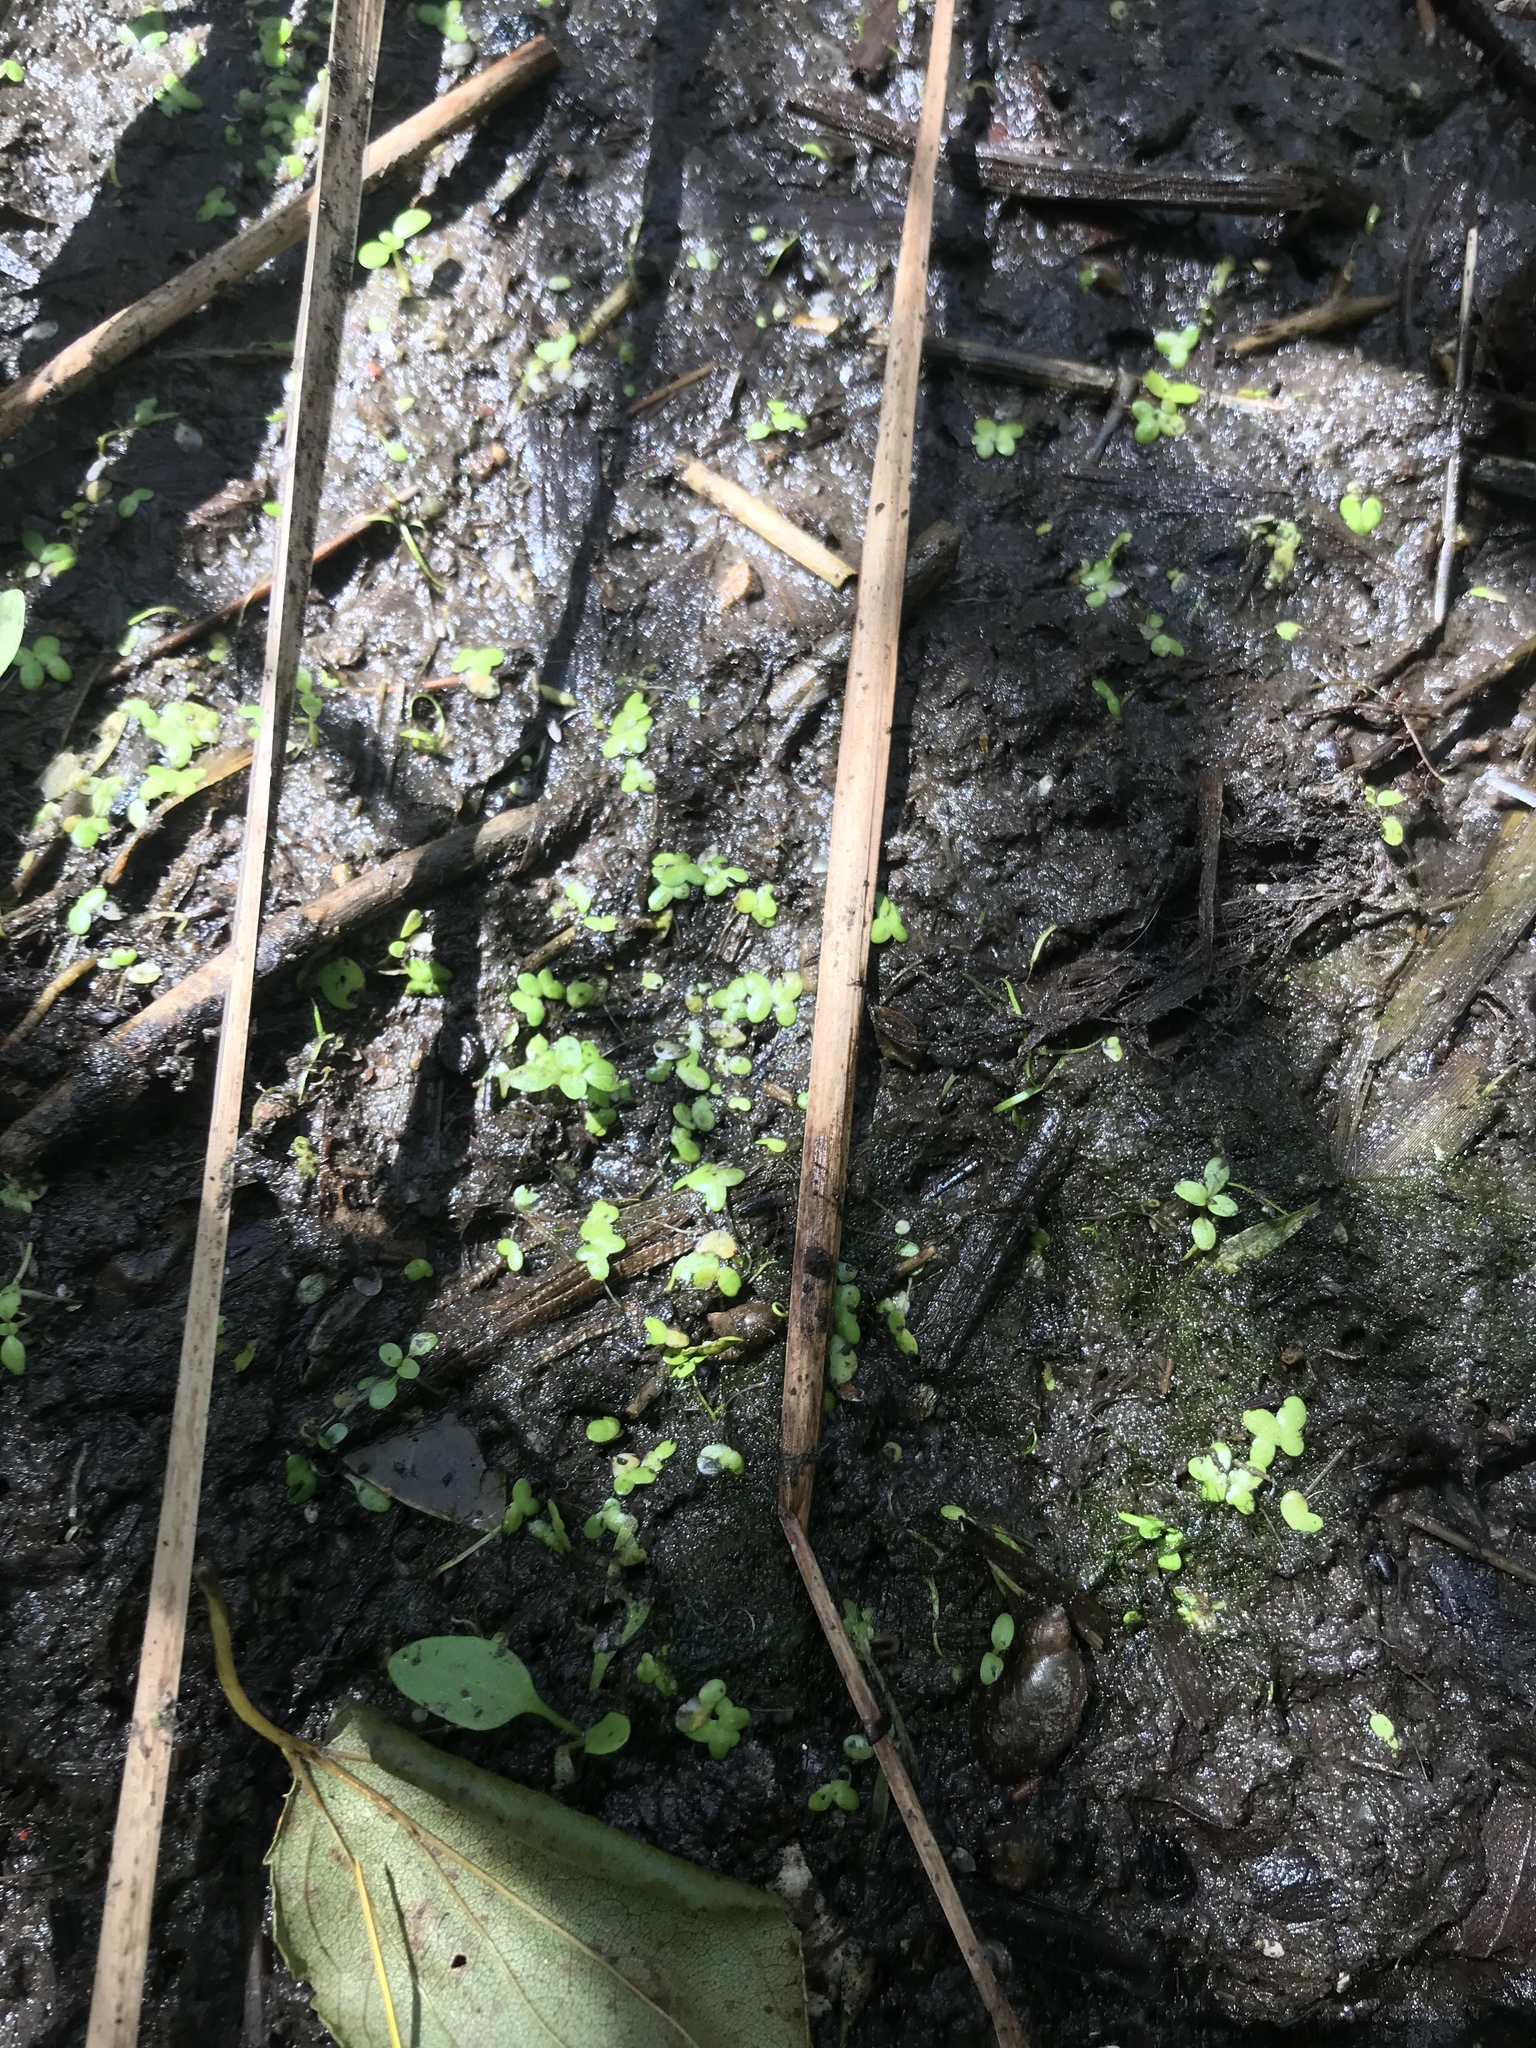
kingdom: Plantae
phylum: Tracheophyta
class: Liliopsida
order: Alismatales
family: Araceae
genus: Lemna
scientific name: Lemna minor
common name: Common duckweed
